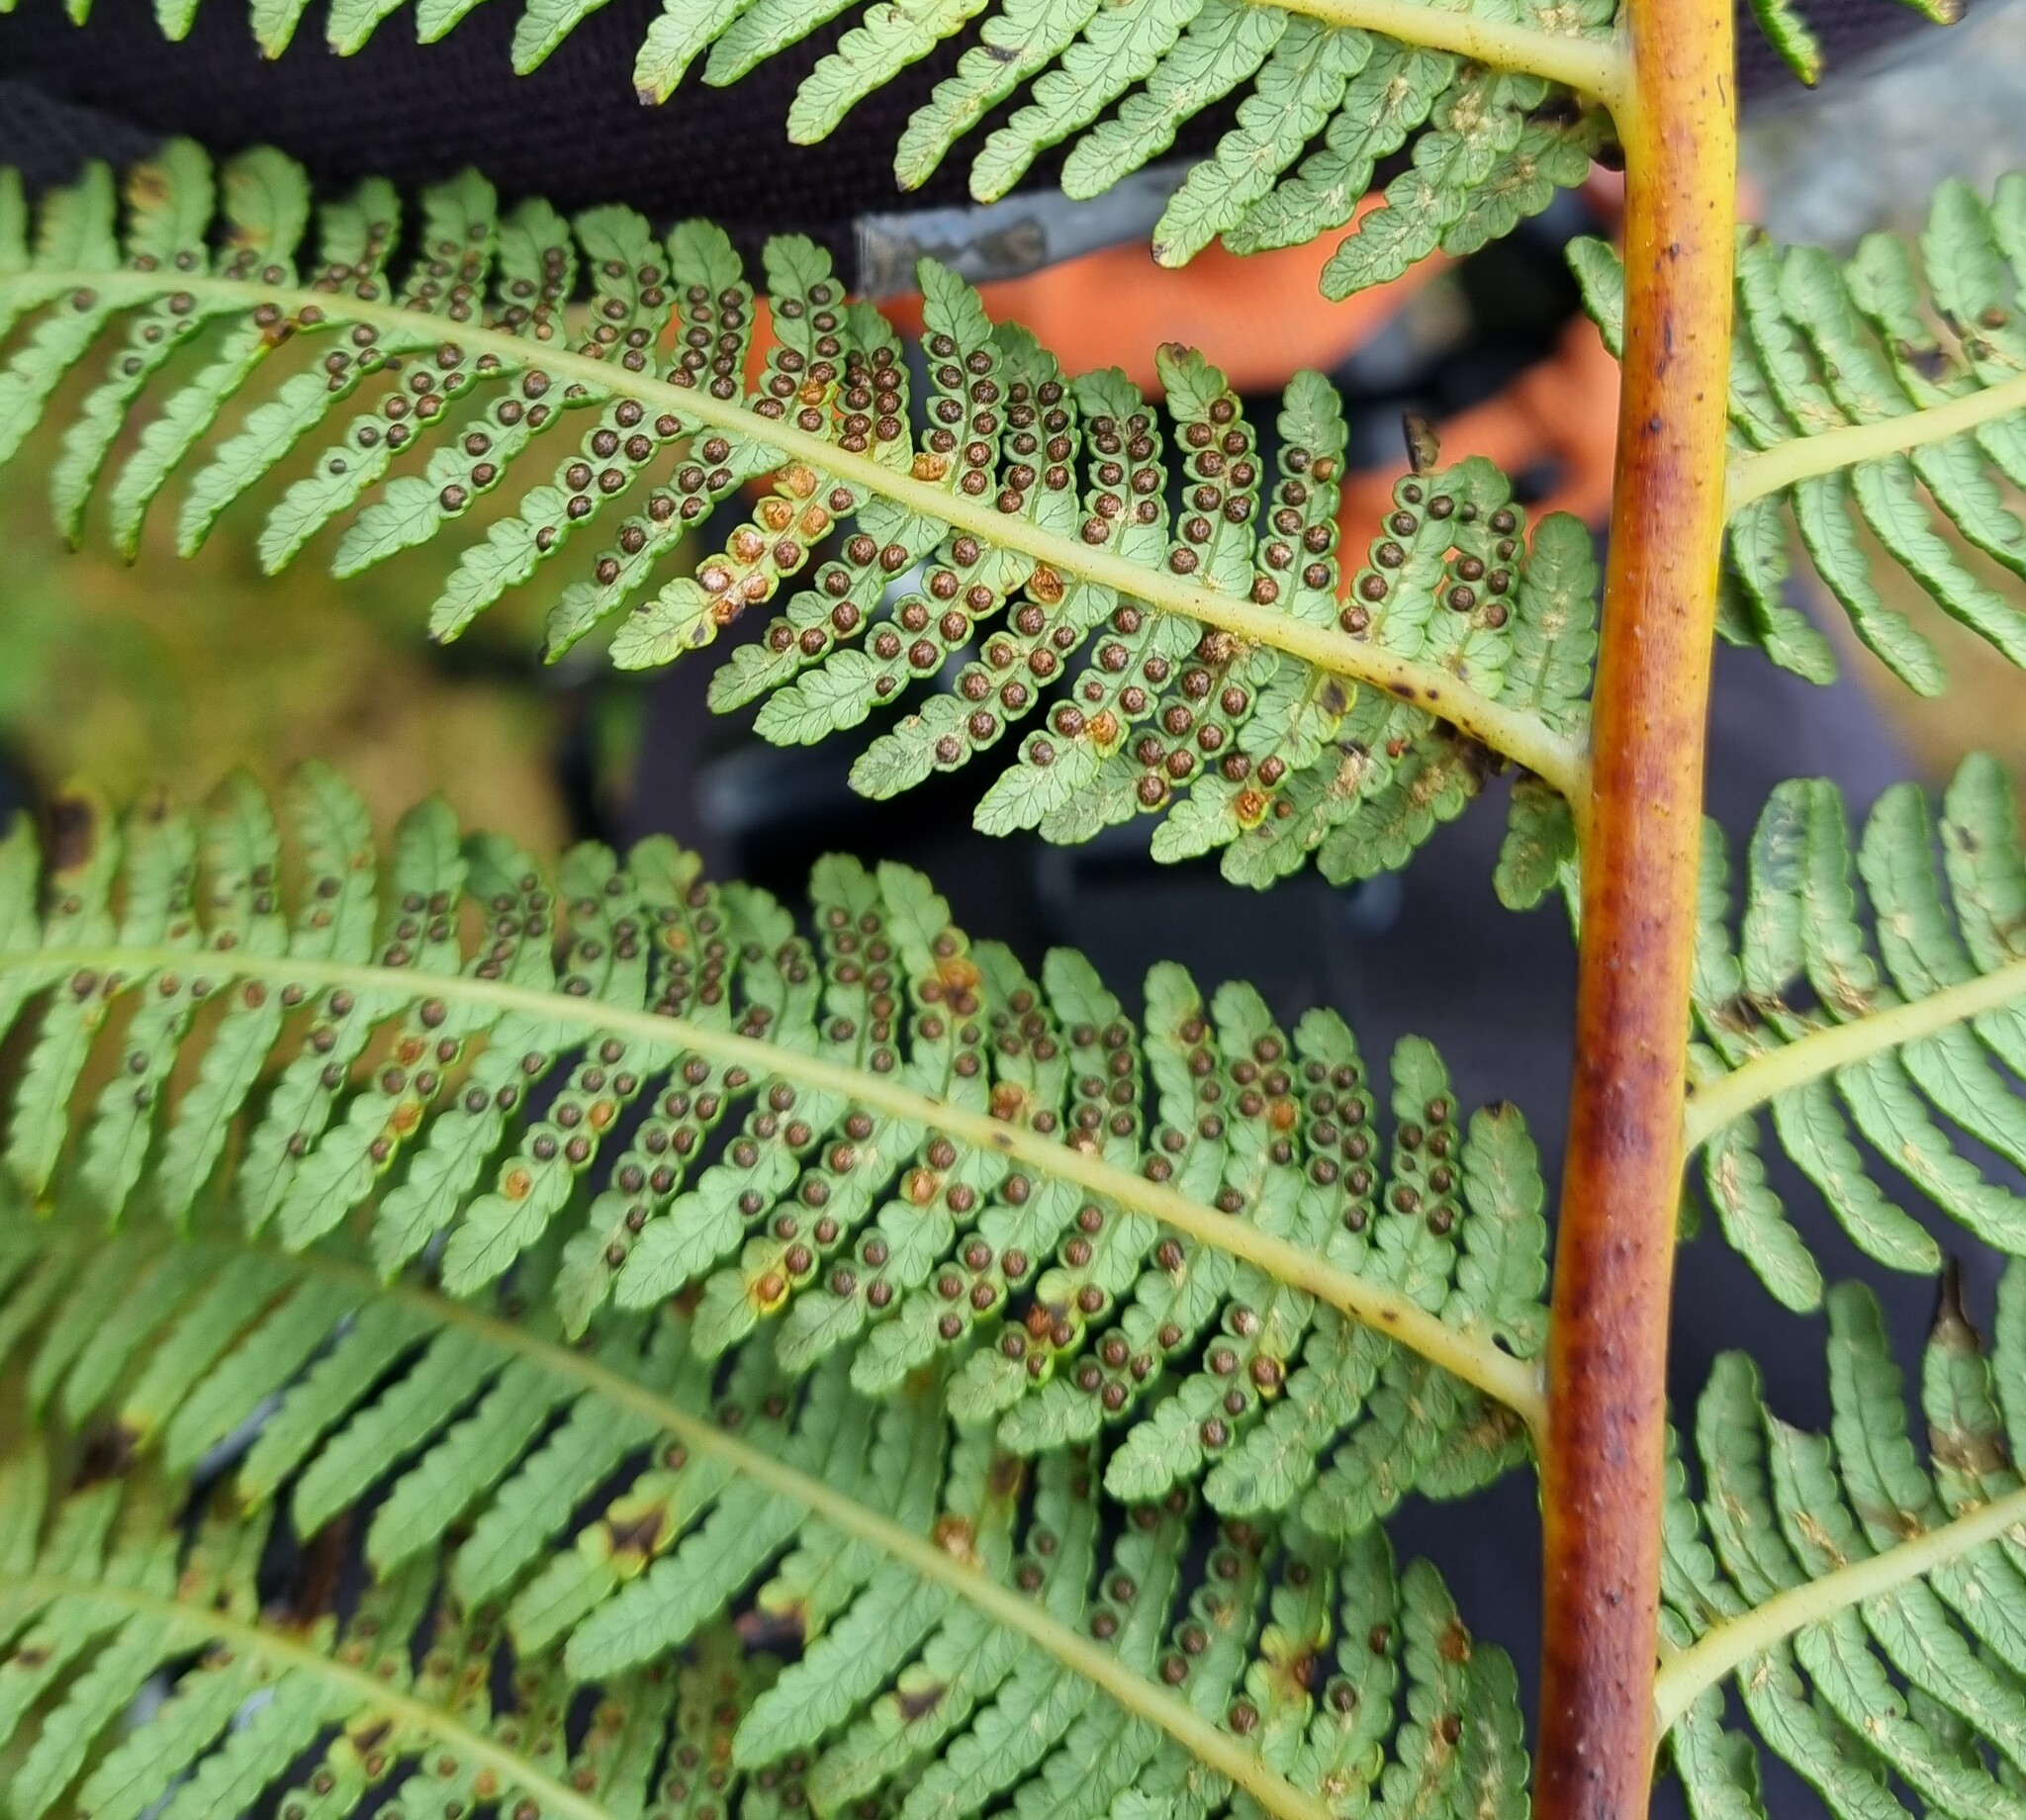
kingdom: Plantae
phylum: Tracheophyta
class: Polypodiopsida
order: Cyatheales
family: Cyatheaceae
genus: Sphaeropteris
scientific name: Sphaeropteris medullaris
